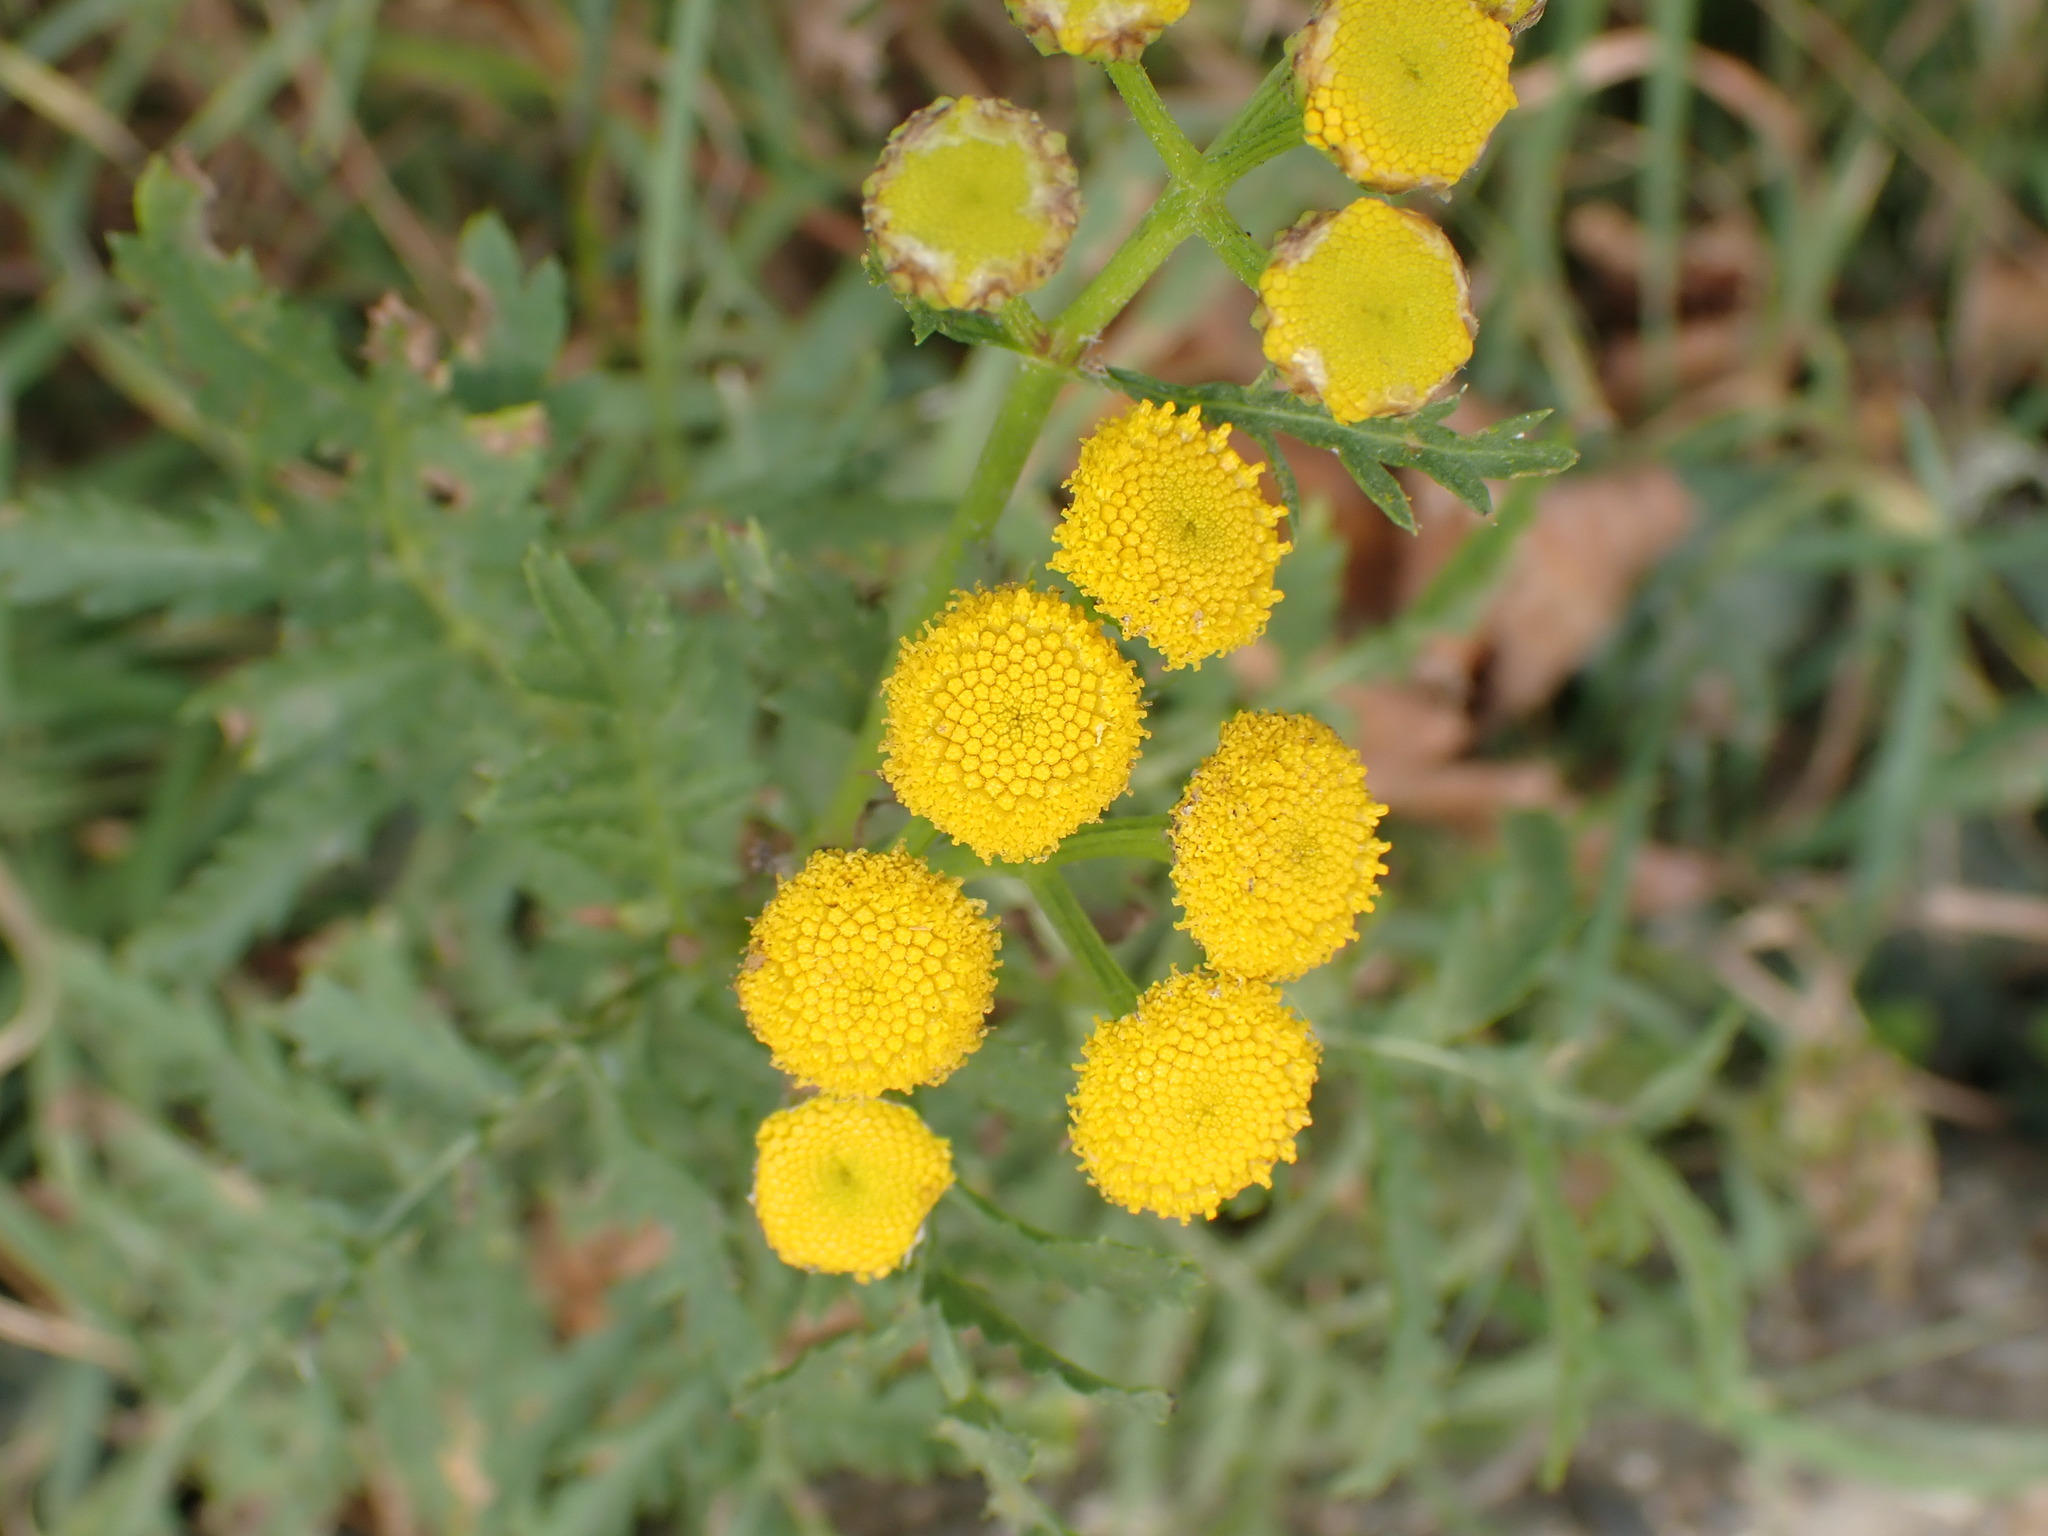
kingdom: Plantae
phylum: Tracheophyta
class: Magnoliopsida
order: Asterales
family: Asteraceae
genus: Tanacetum
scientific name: Tanacetum vulgare
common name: Common tansy
